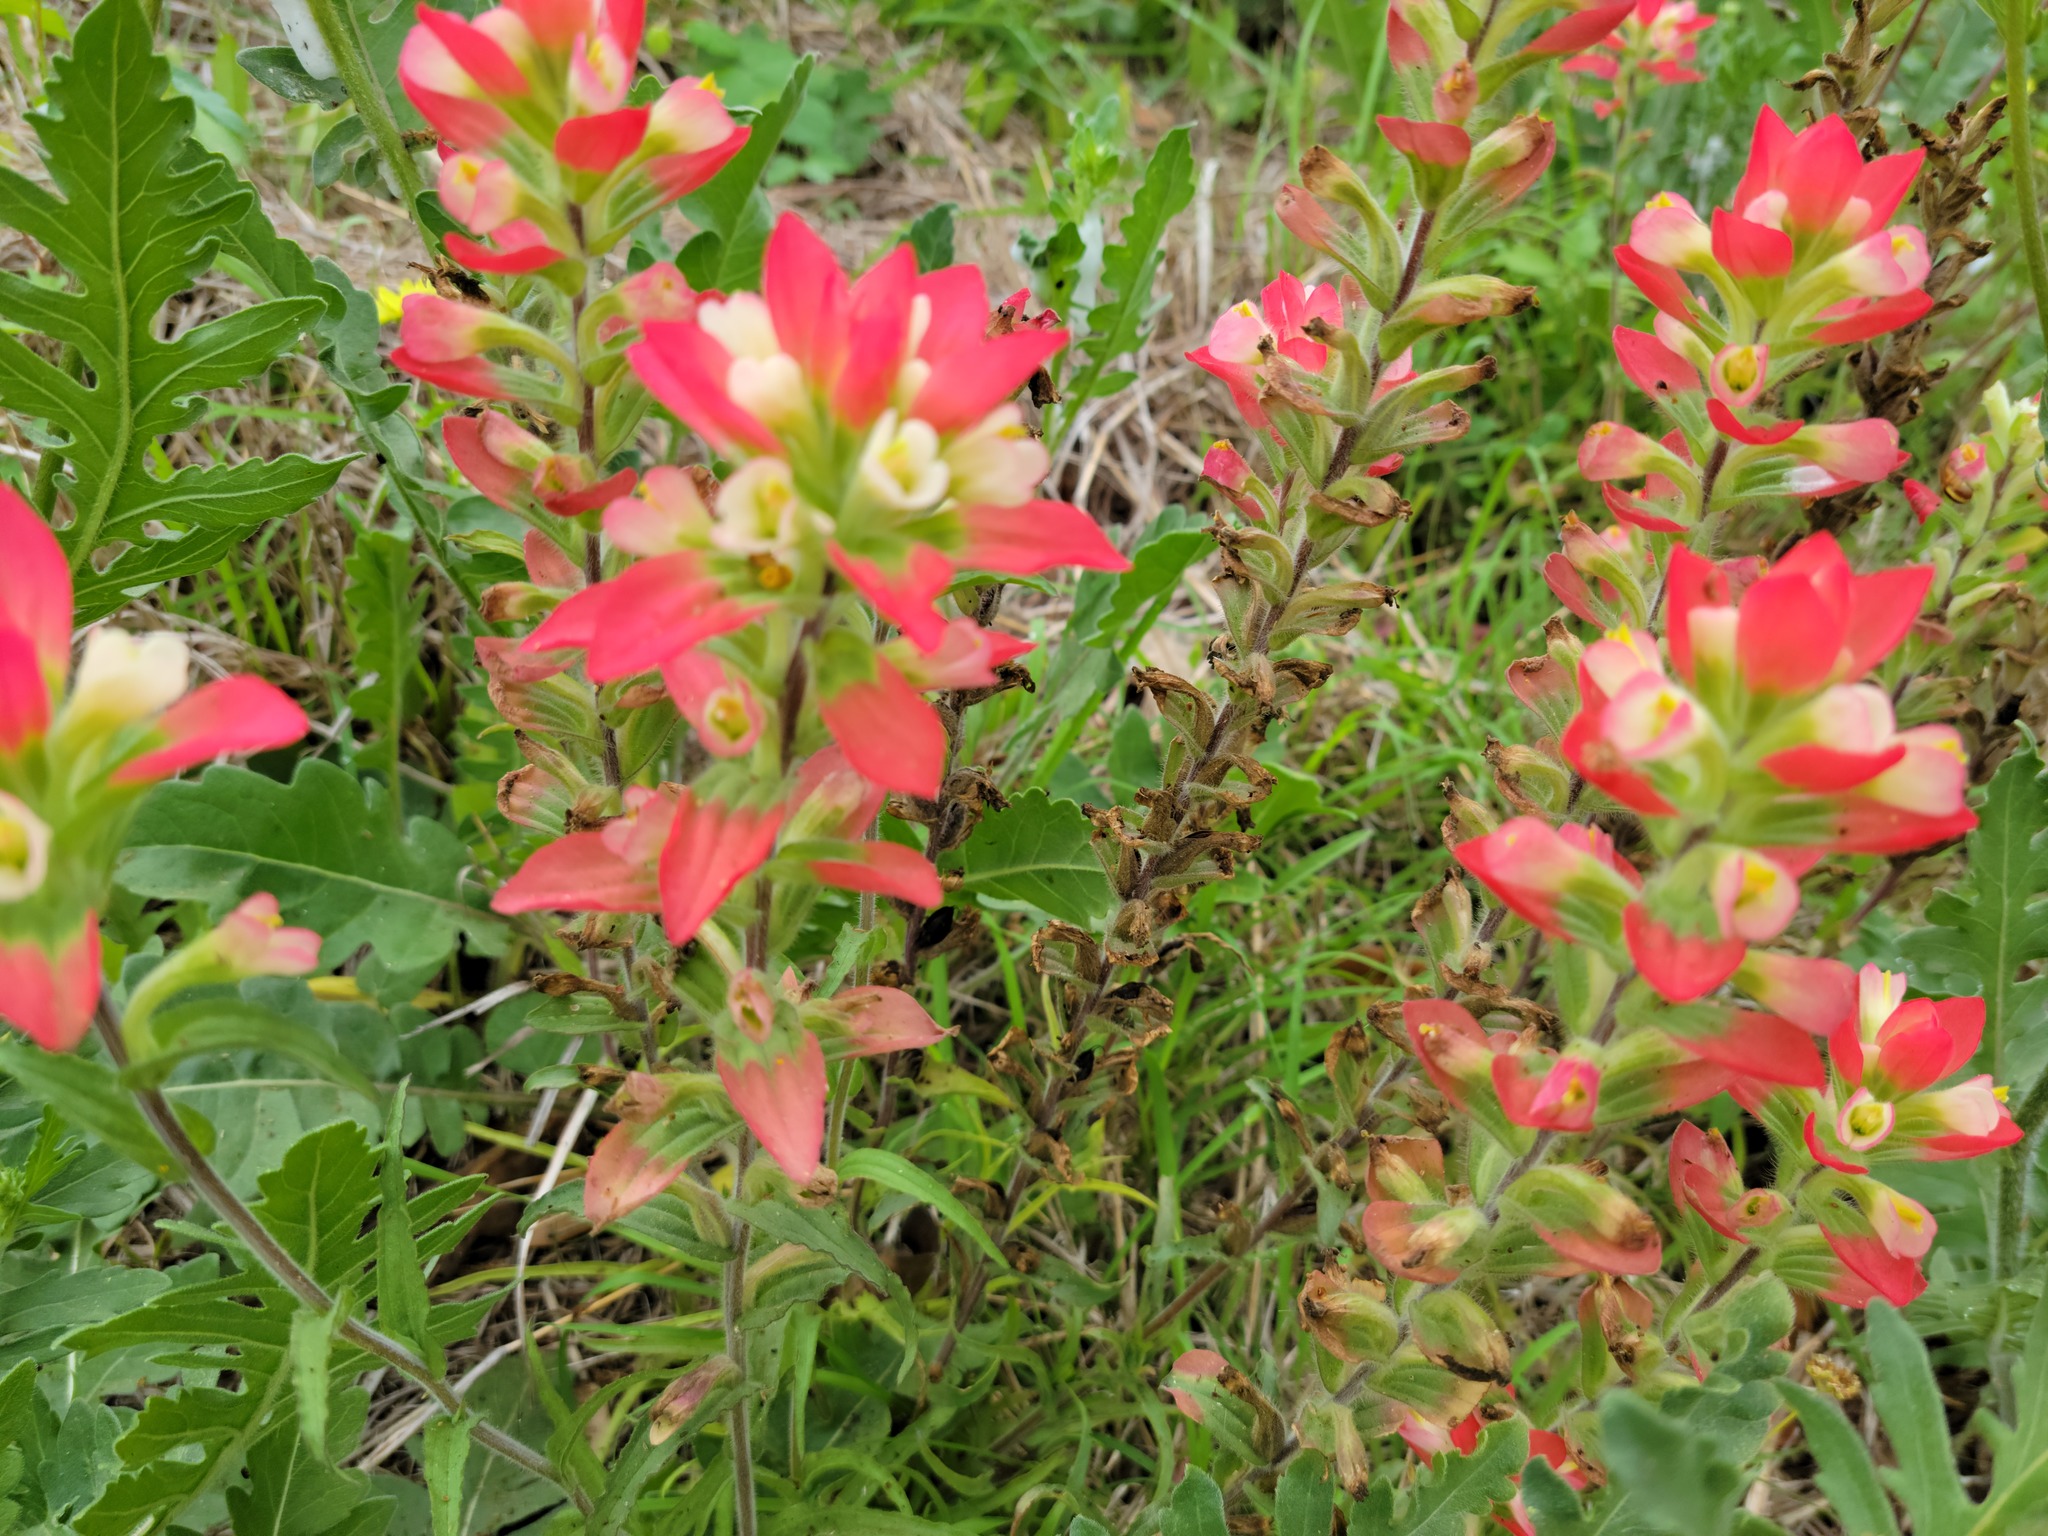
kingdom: Plantae
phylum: Tracheophyta
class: Magnoliopsida
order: Lamiales
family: Orobanchaceae
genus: Castilleja
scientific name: Castilleja indivisa
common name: Texas paintbrush
